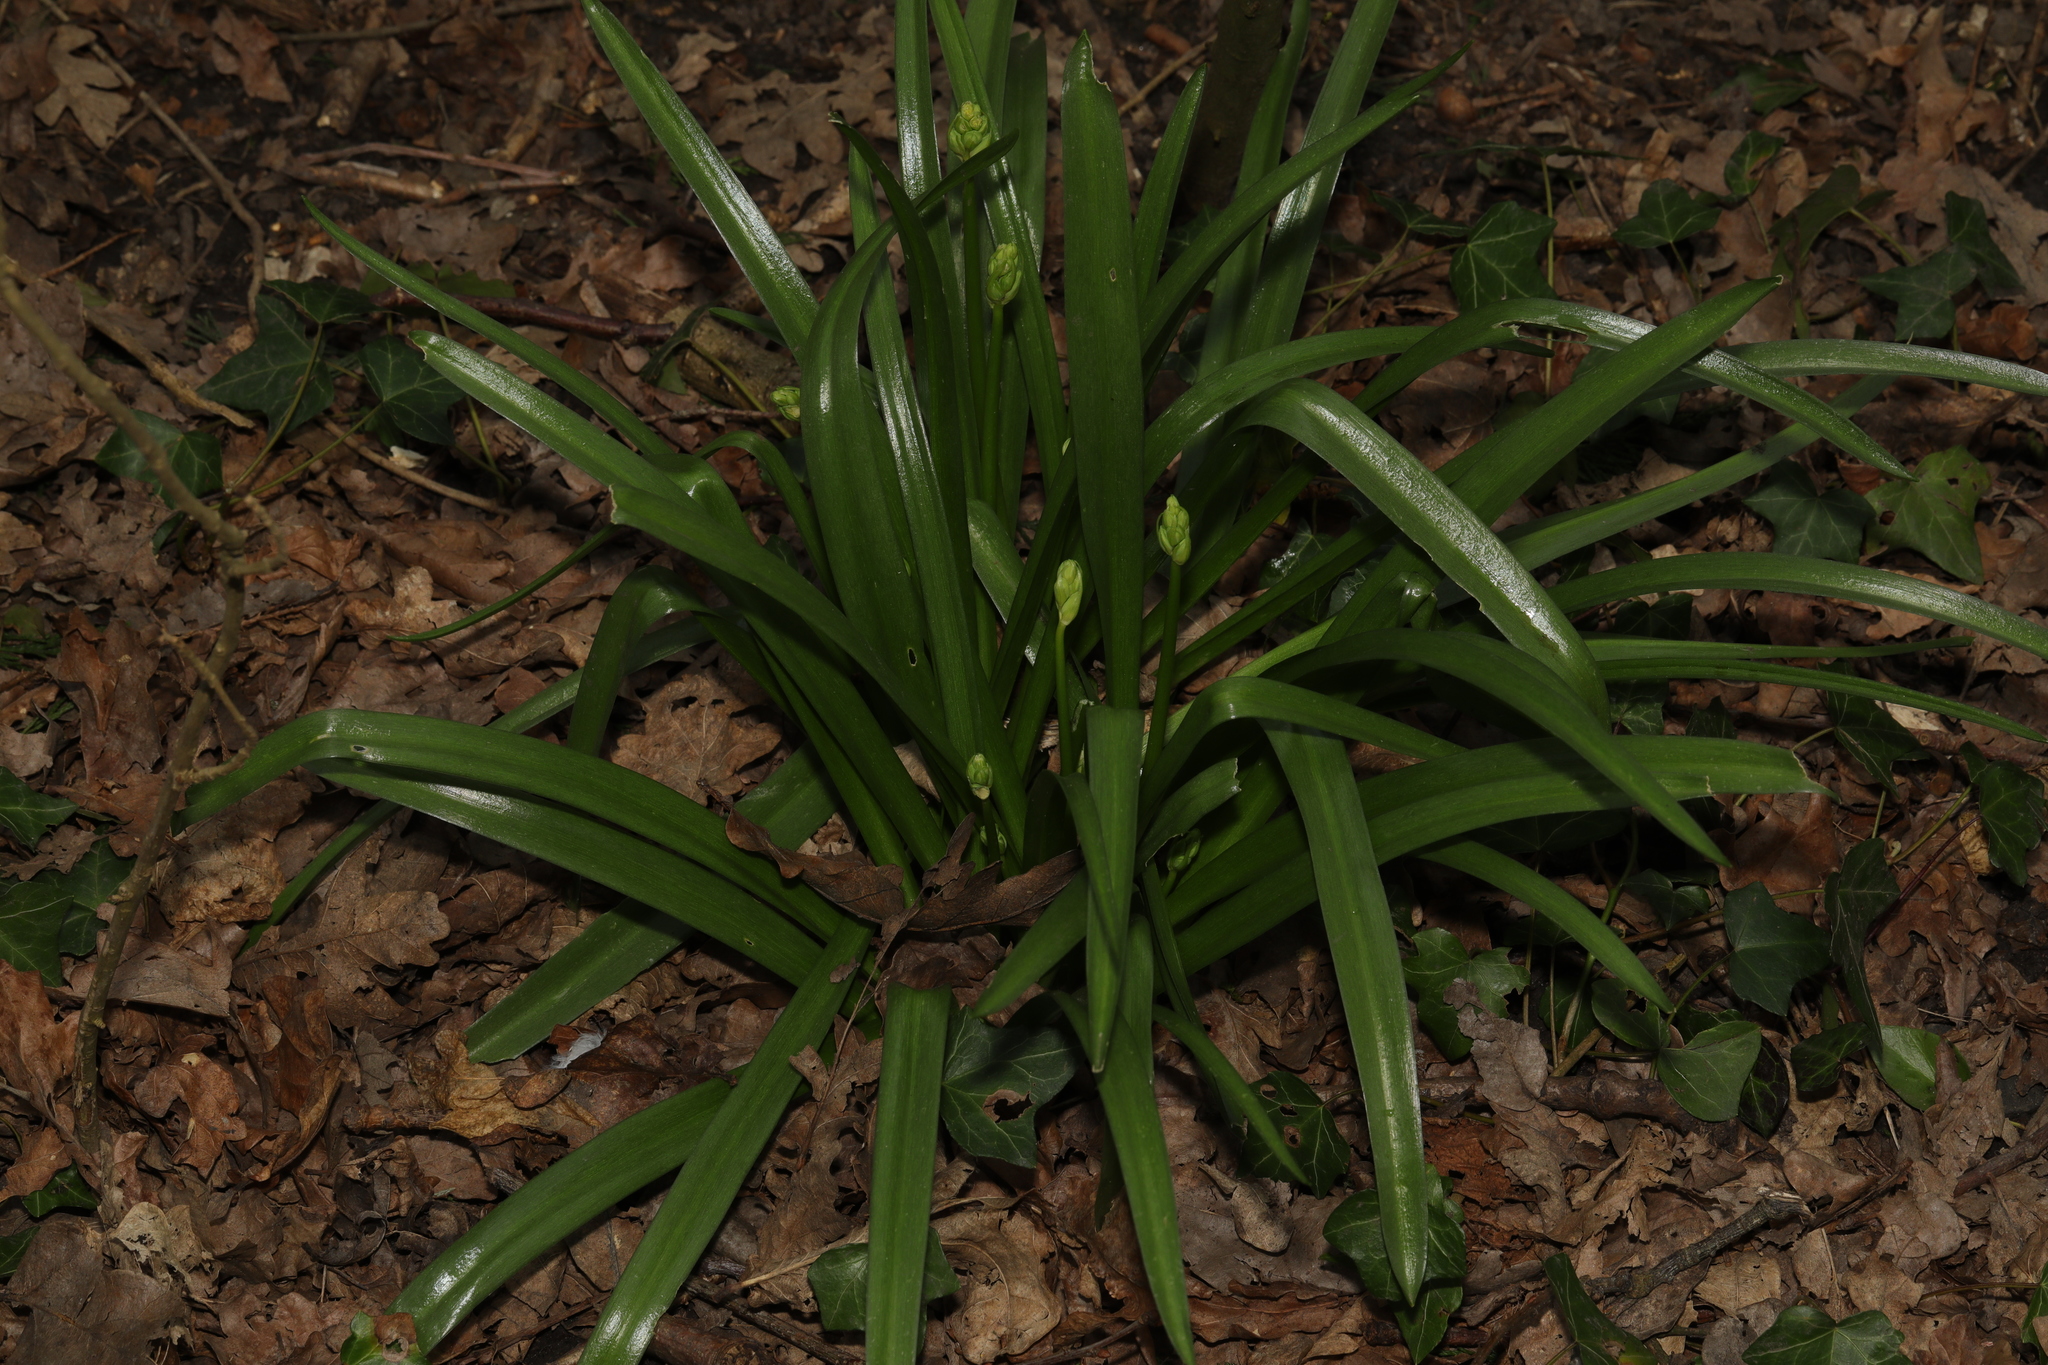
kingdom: Plantae
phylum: Tracheophyta
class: Liliopsida
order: Asparagales
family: Asparagaceae
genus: Hyacinthoides
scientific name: Hyacinthoides massartiana
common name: Hyacinthoides
